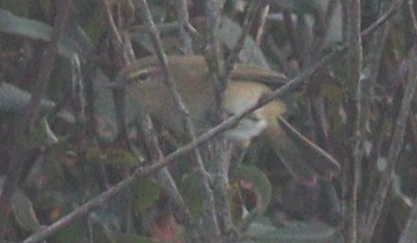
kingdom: Animalia
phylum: Chordata
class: Aves
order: Passeriformes
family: Phylloscopidae
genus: Phylloscopus
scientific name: Phylloscopus collybita
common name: Common chiffchaff
